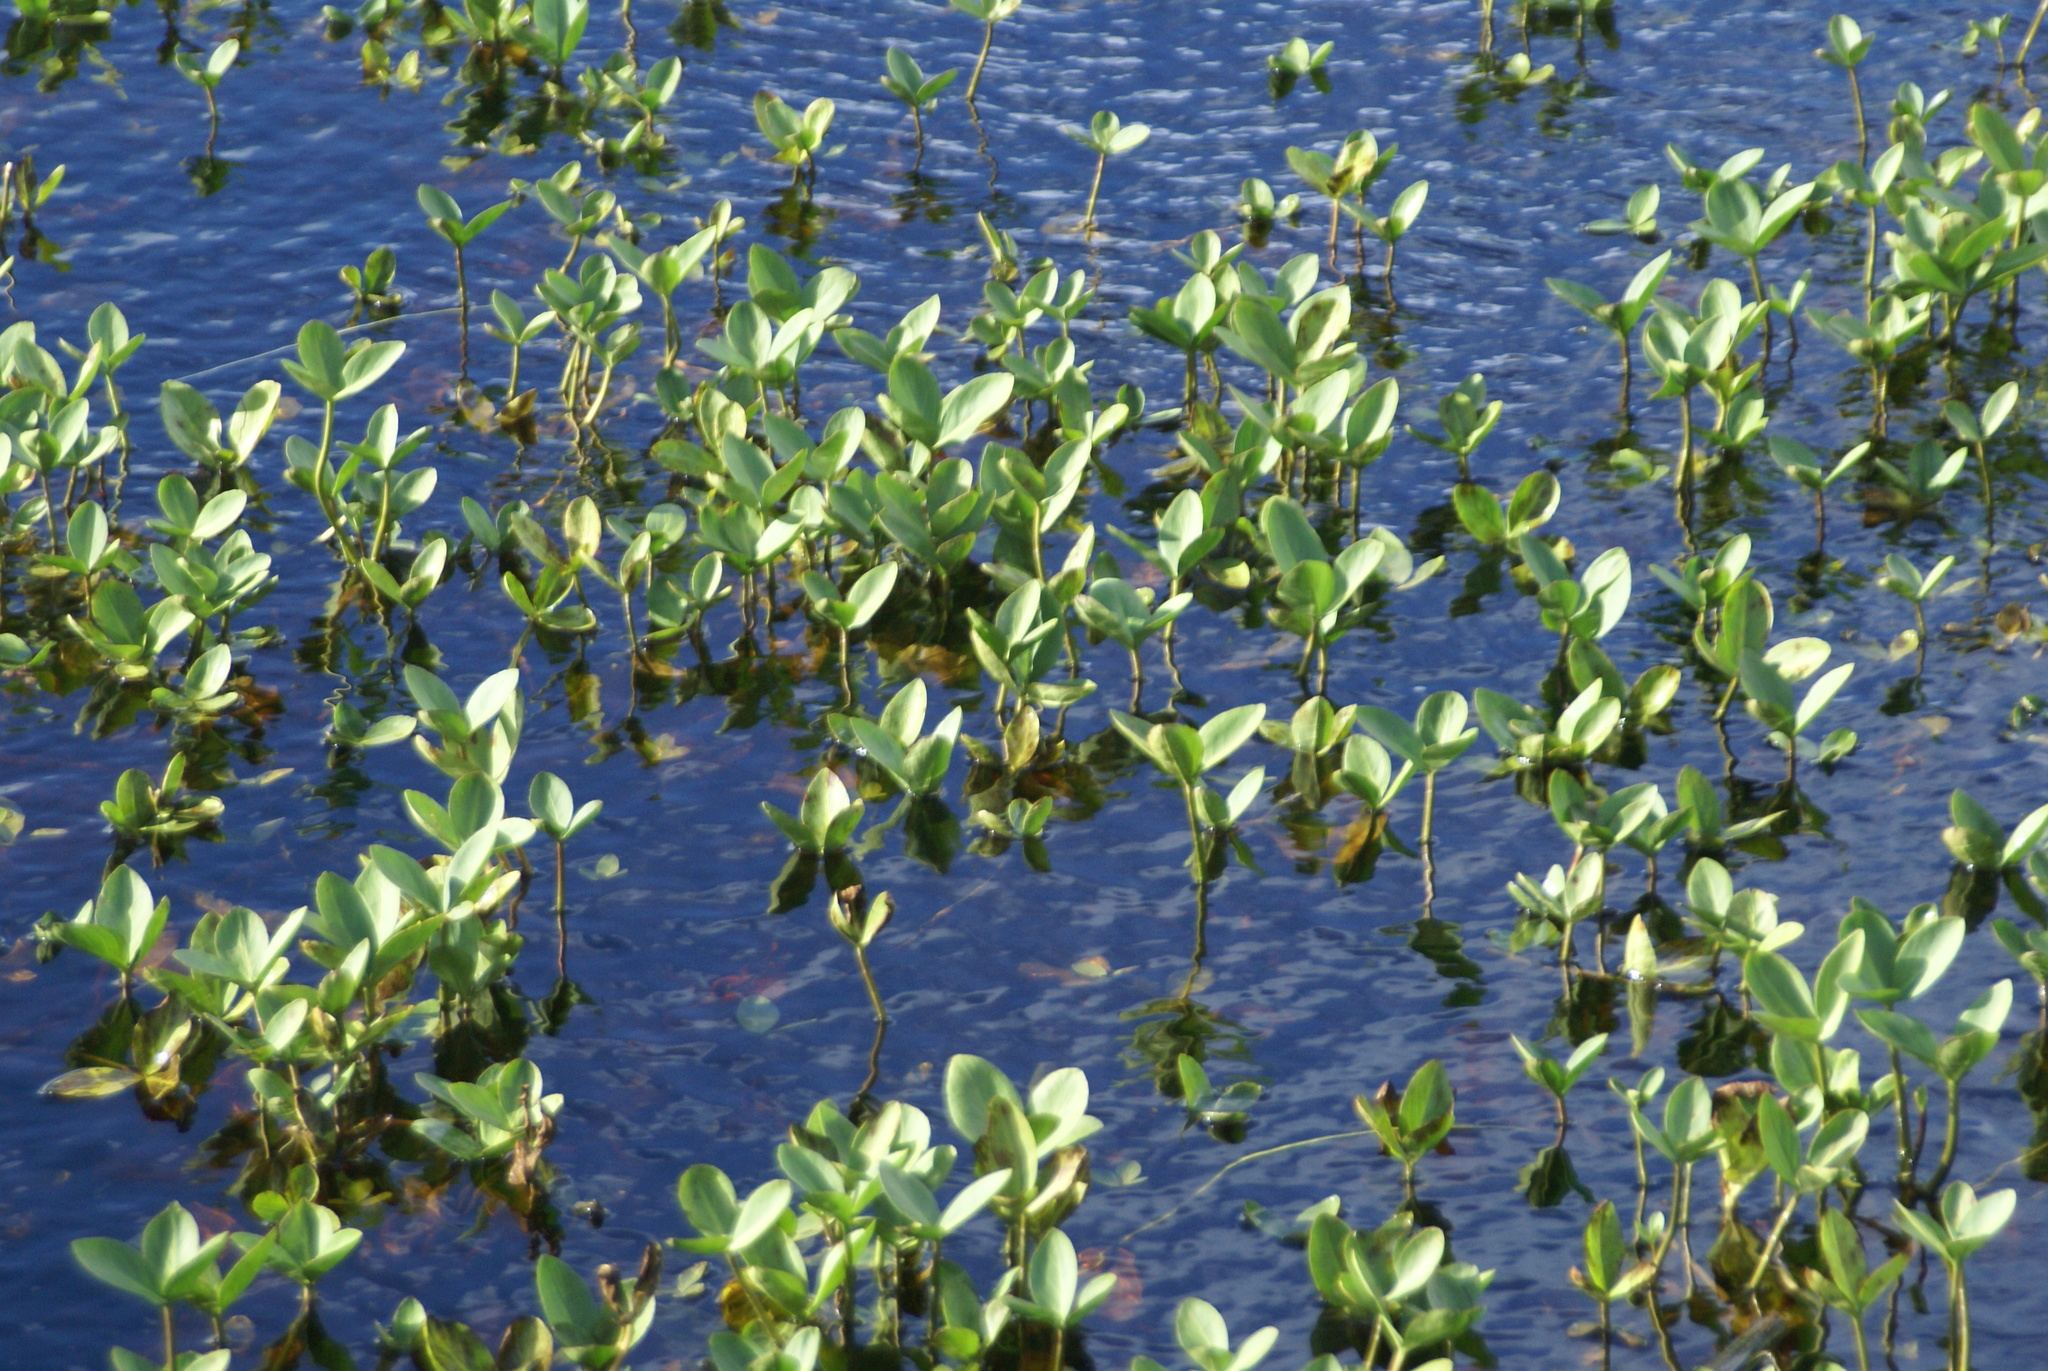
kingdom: Plantae
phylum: Tracheophyta
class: Magnoliopsida
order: Asterales
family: Menyanthaceae
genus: Menyanthes
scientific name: Menyanthes trifoliata
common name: Bogbean
